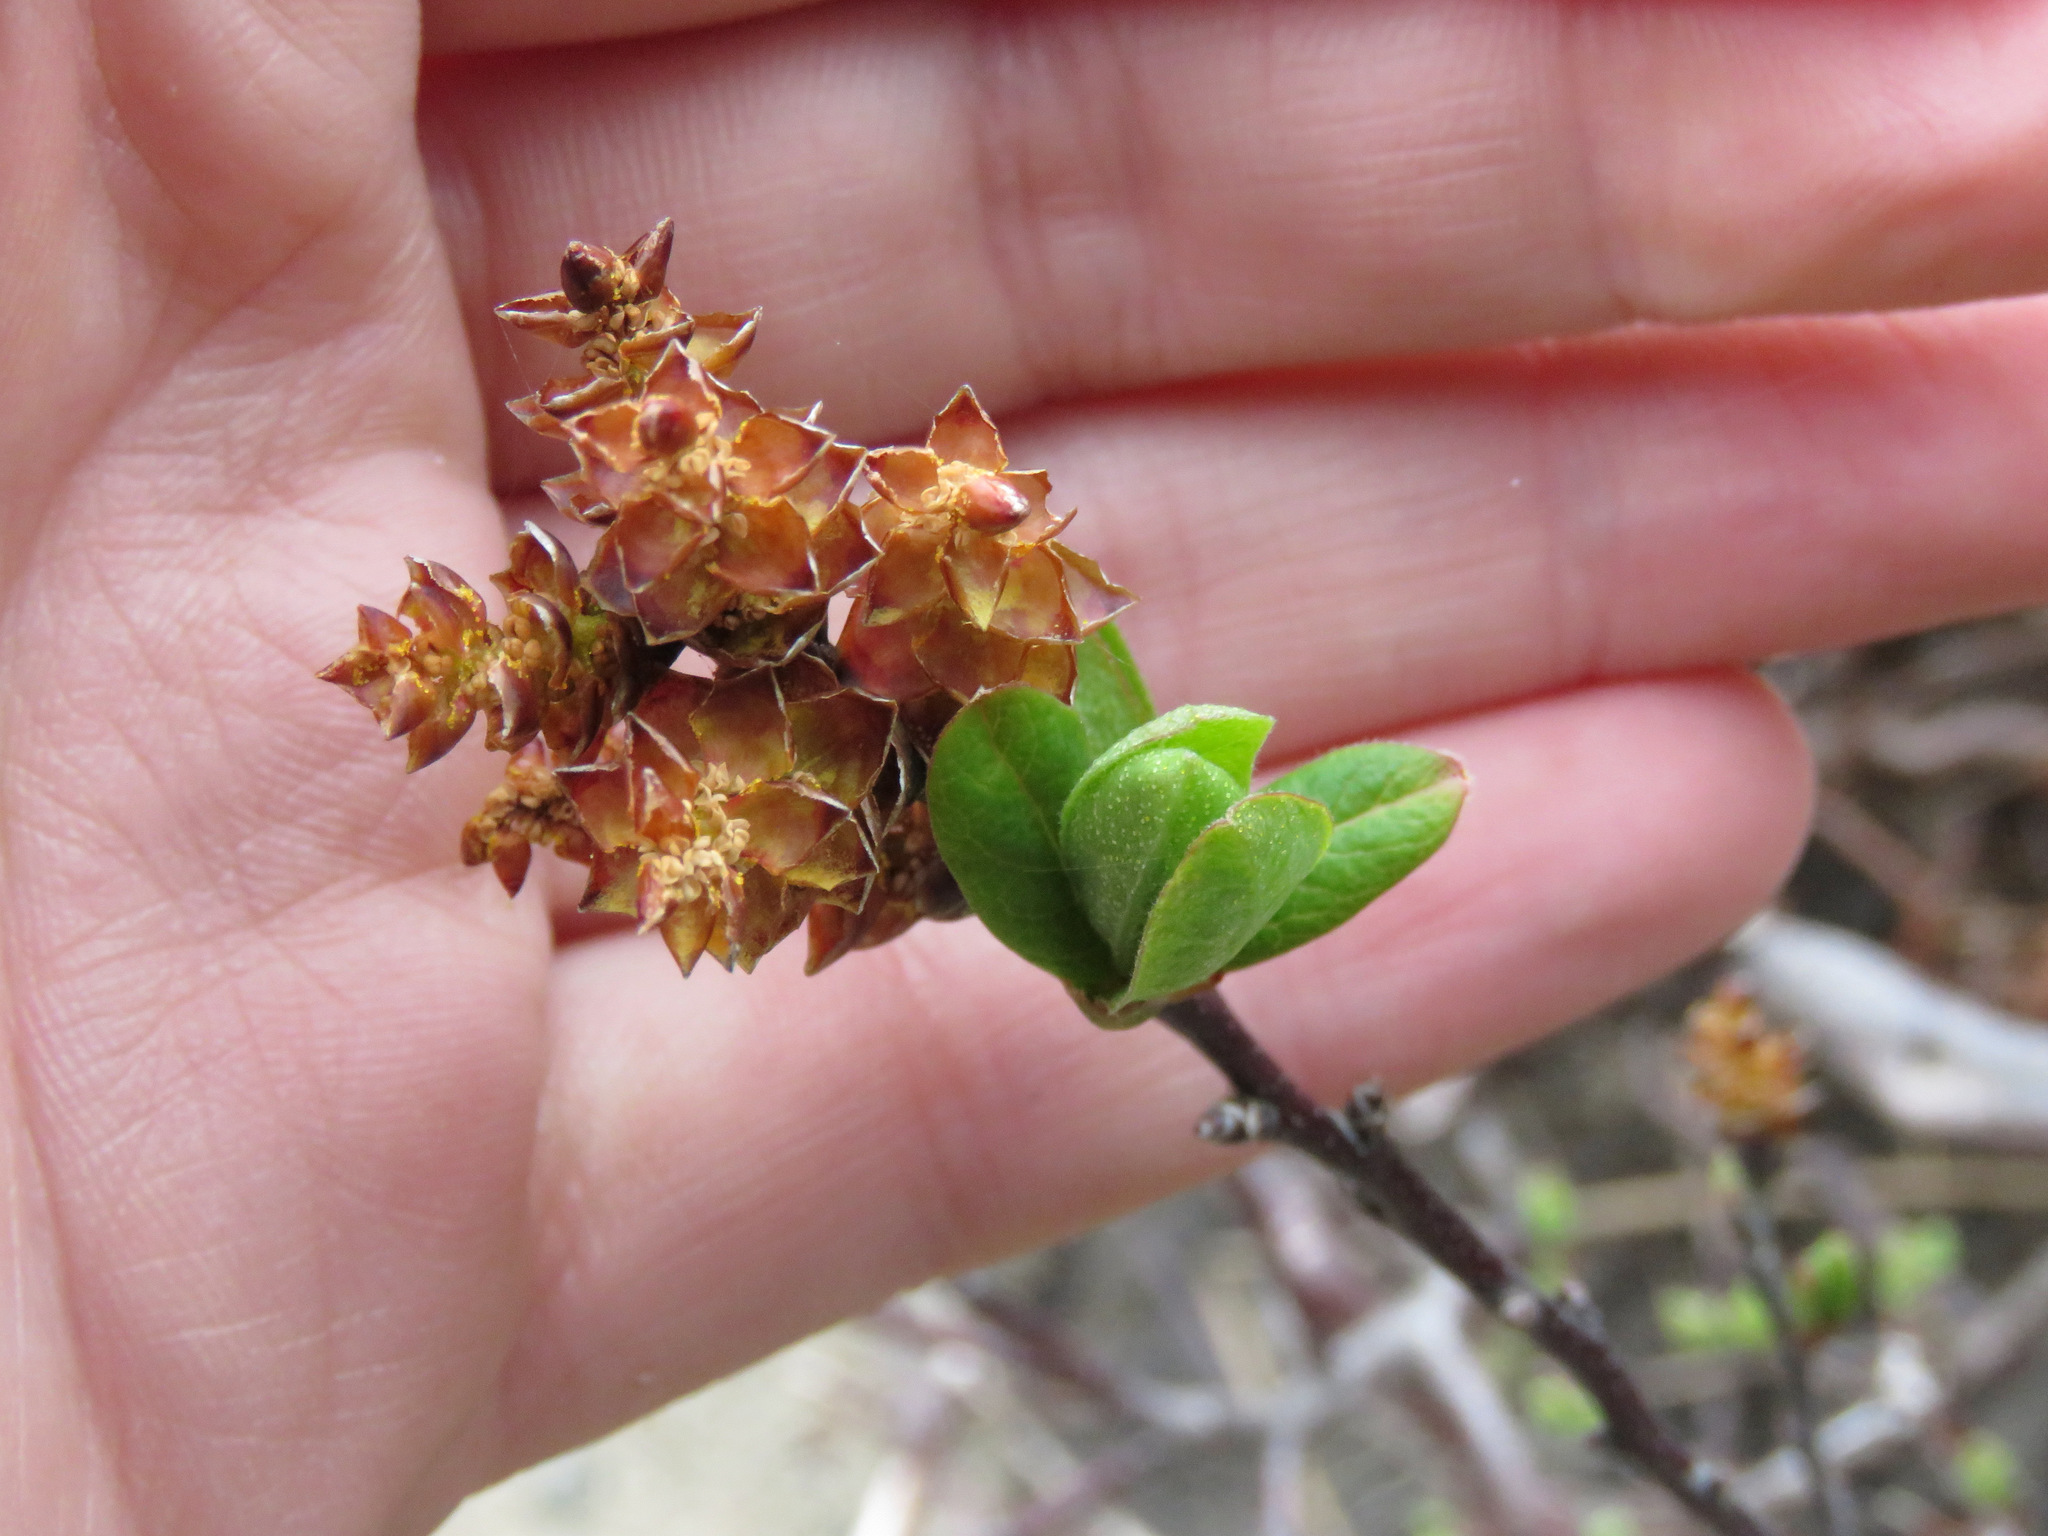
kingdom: Plantae
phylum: Tracheophyta
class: Magnoliopsida
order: Fagales
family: Myricaceae
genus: Myrica
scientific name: Myrica gale
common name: Sweet gale
